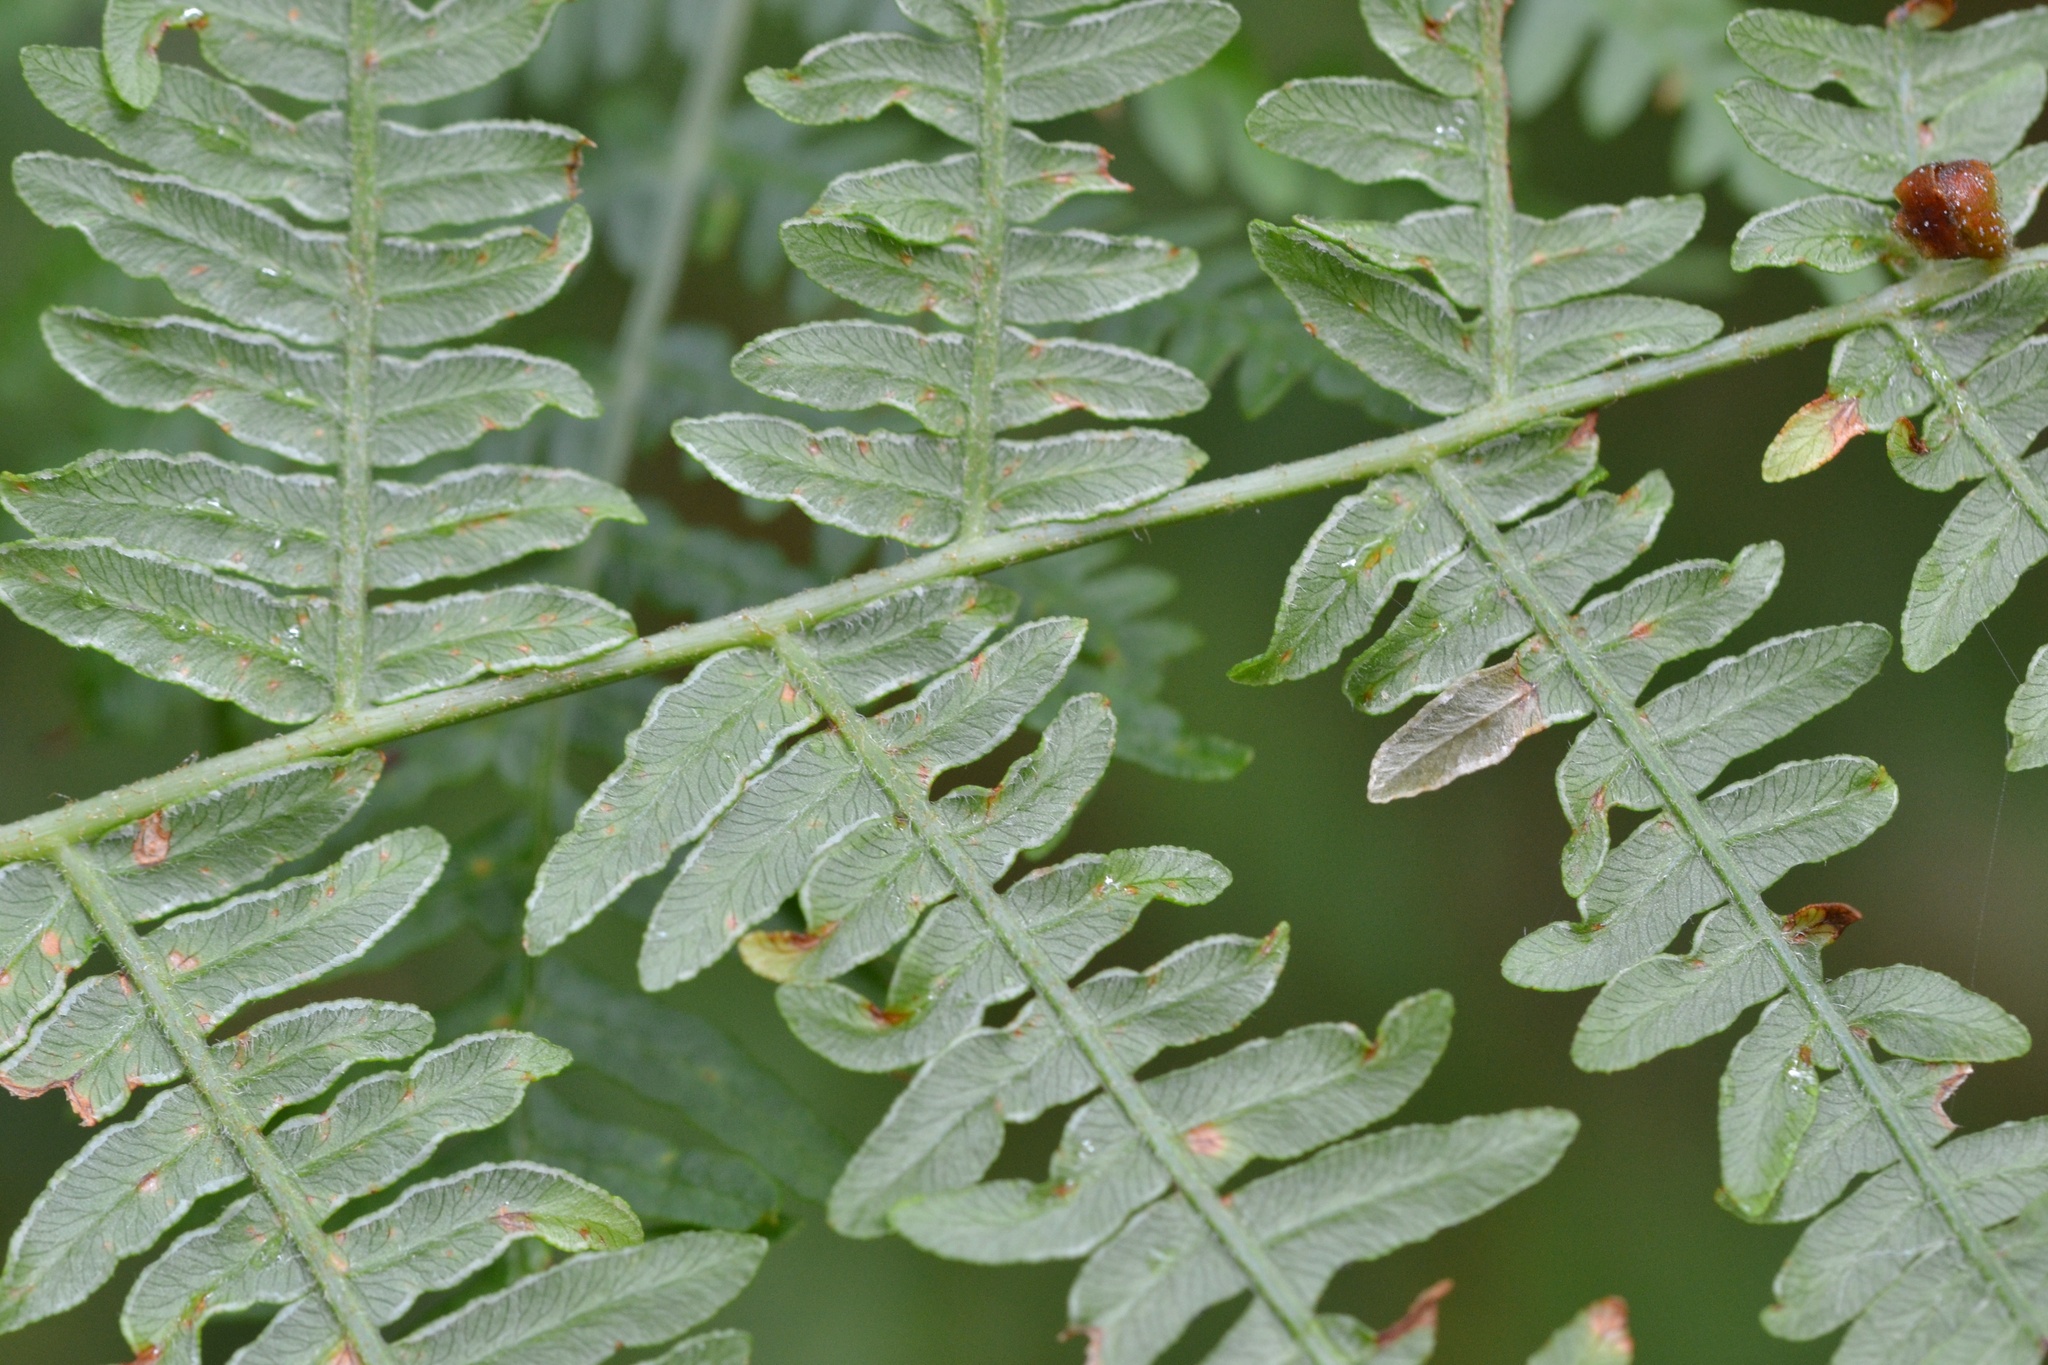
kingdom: Plantae
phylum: Tracheophyta
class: Polypodiopsida
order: Polypodiales
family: Dennstaedtiaceae
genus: Pteridium
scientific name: Pteridium aquilinum
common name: Bracken
